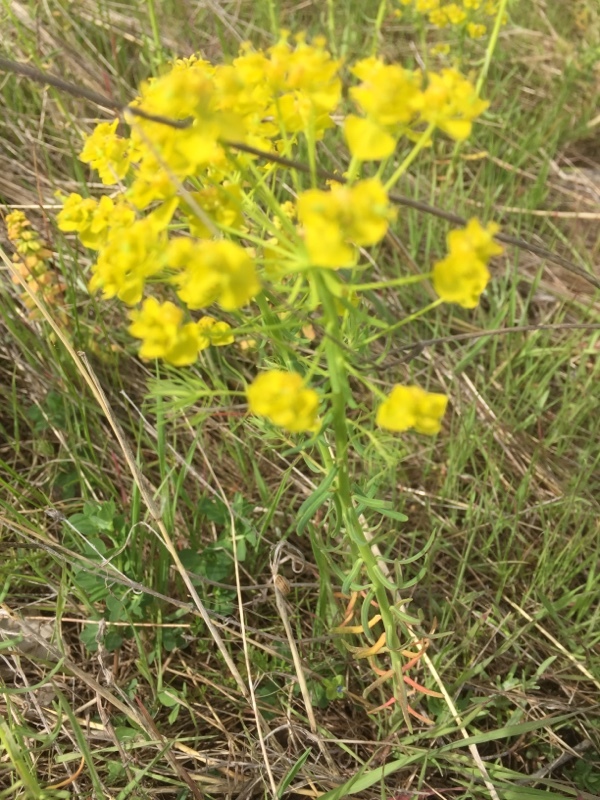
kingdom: Plantae
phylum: Tracheophyta
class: Magnoliopsida
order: Malpighiales
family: Euphorbiaceae
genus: Euphorbia
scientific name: Euphorbia cyparissias
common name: Cypress spurge
